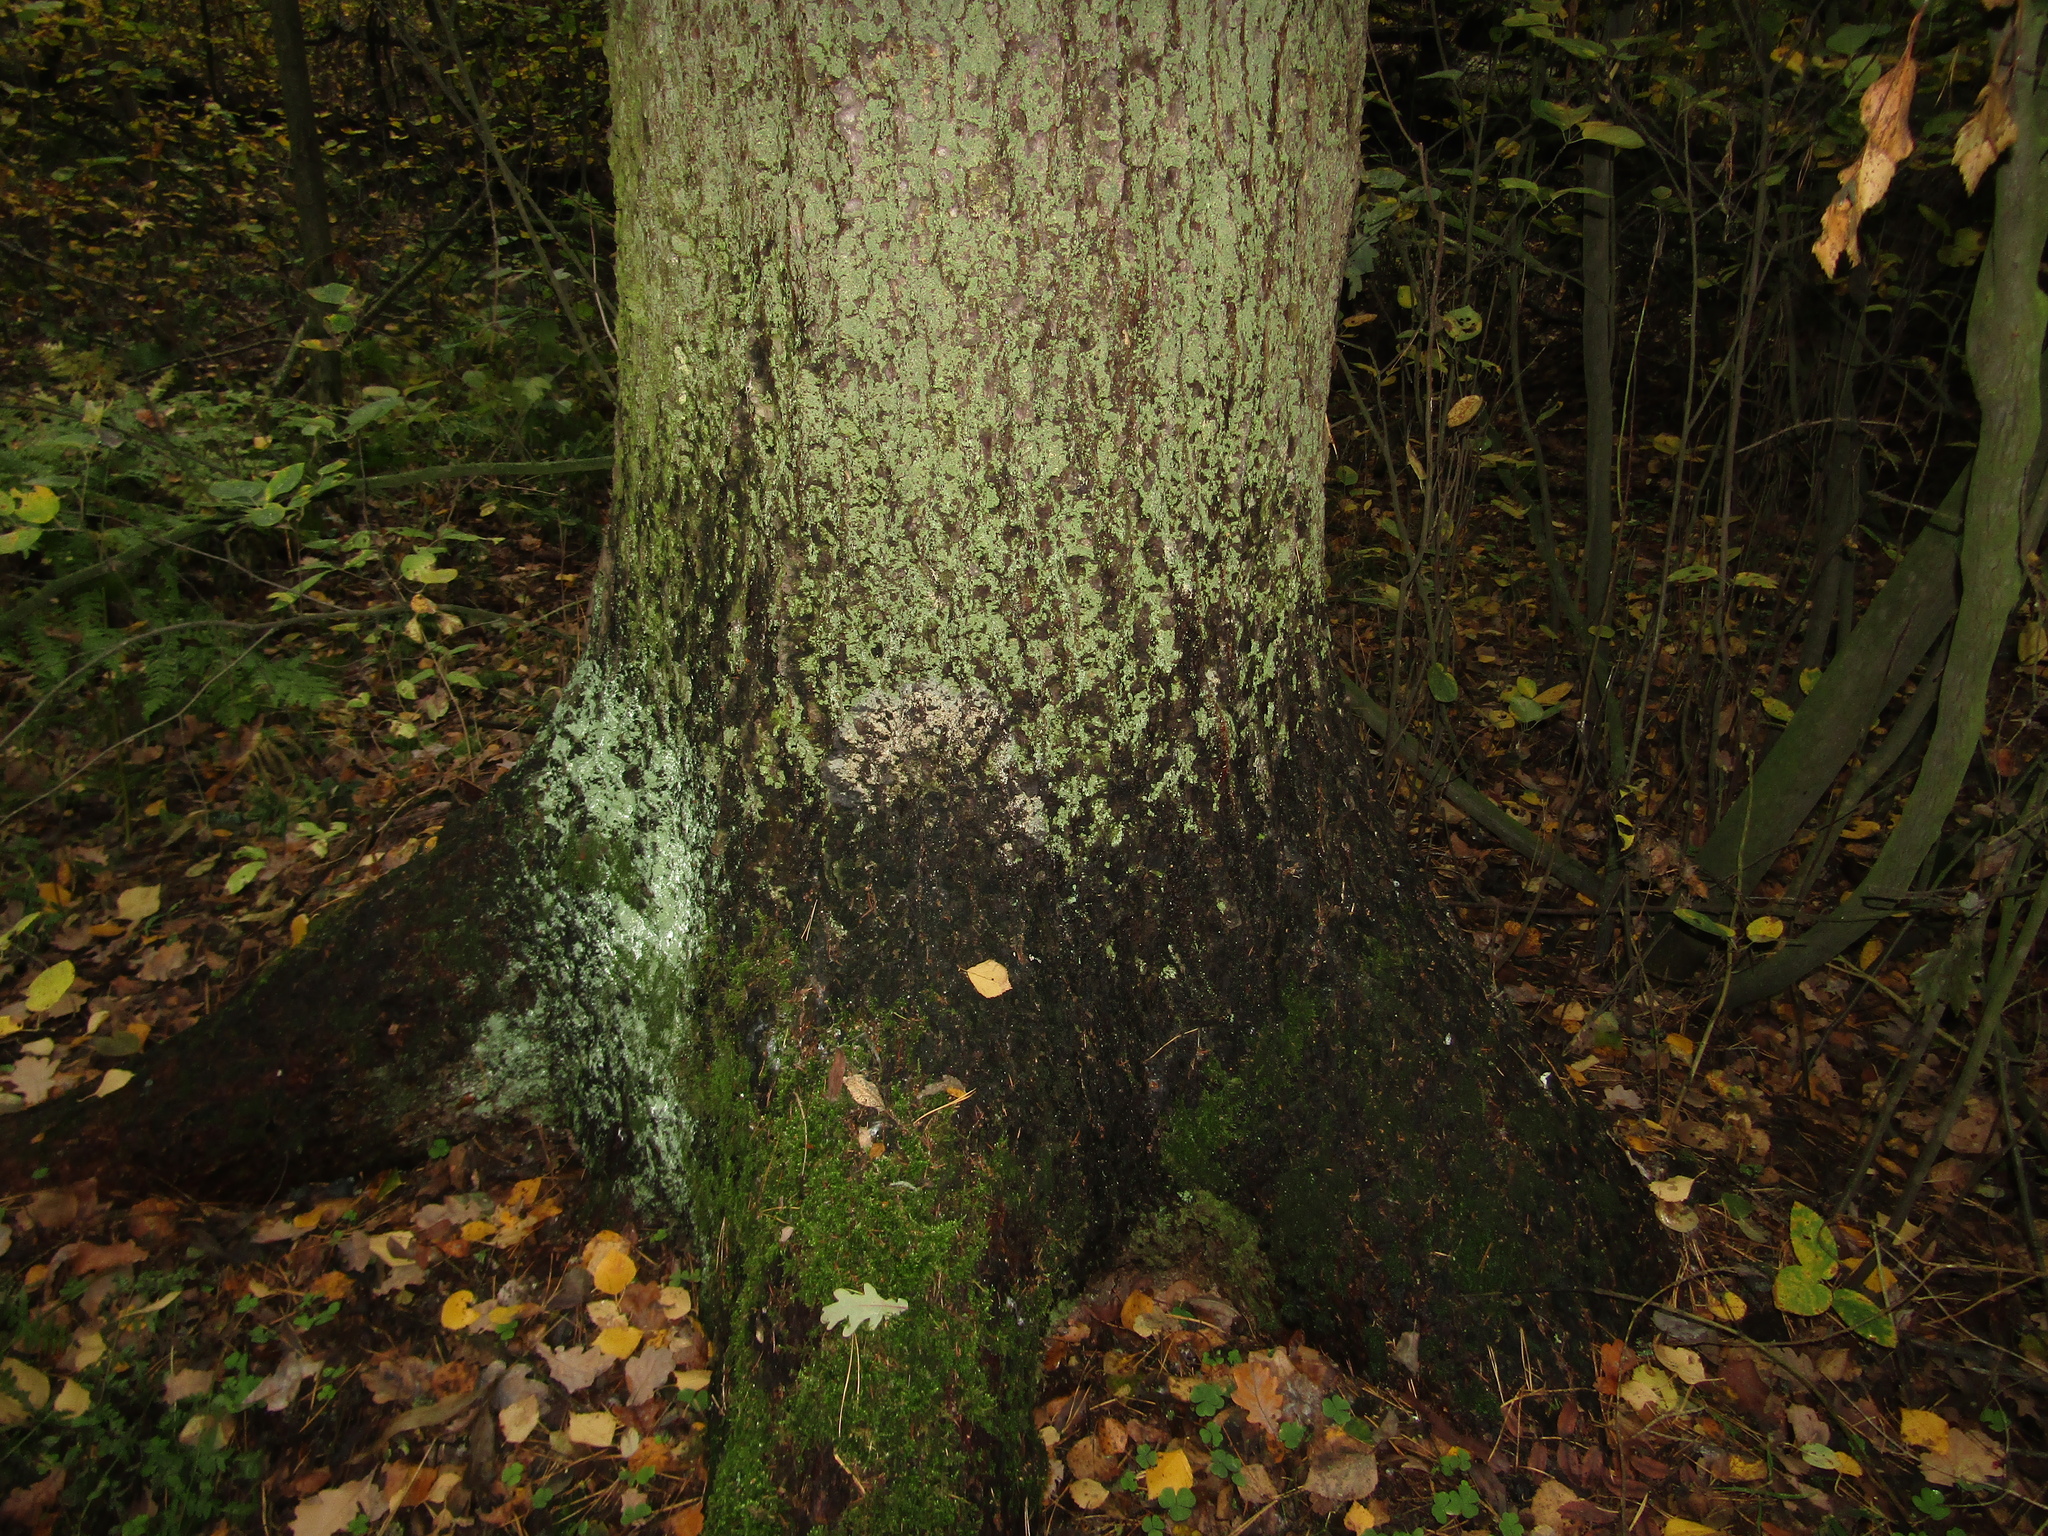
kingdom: Plantae
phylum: Tracheophyta
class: Pinopsida
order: Pinales
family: Pinaceae
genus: Picea
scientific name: Picea abies
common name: Norway spruce
